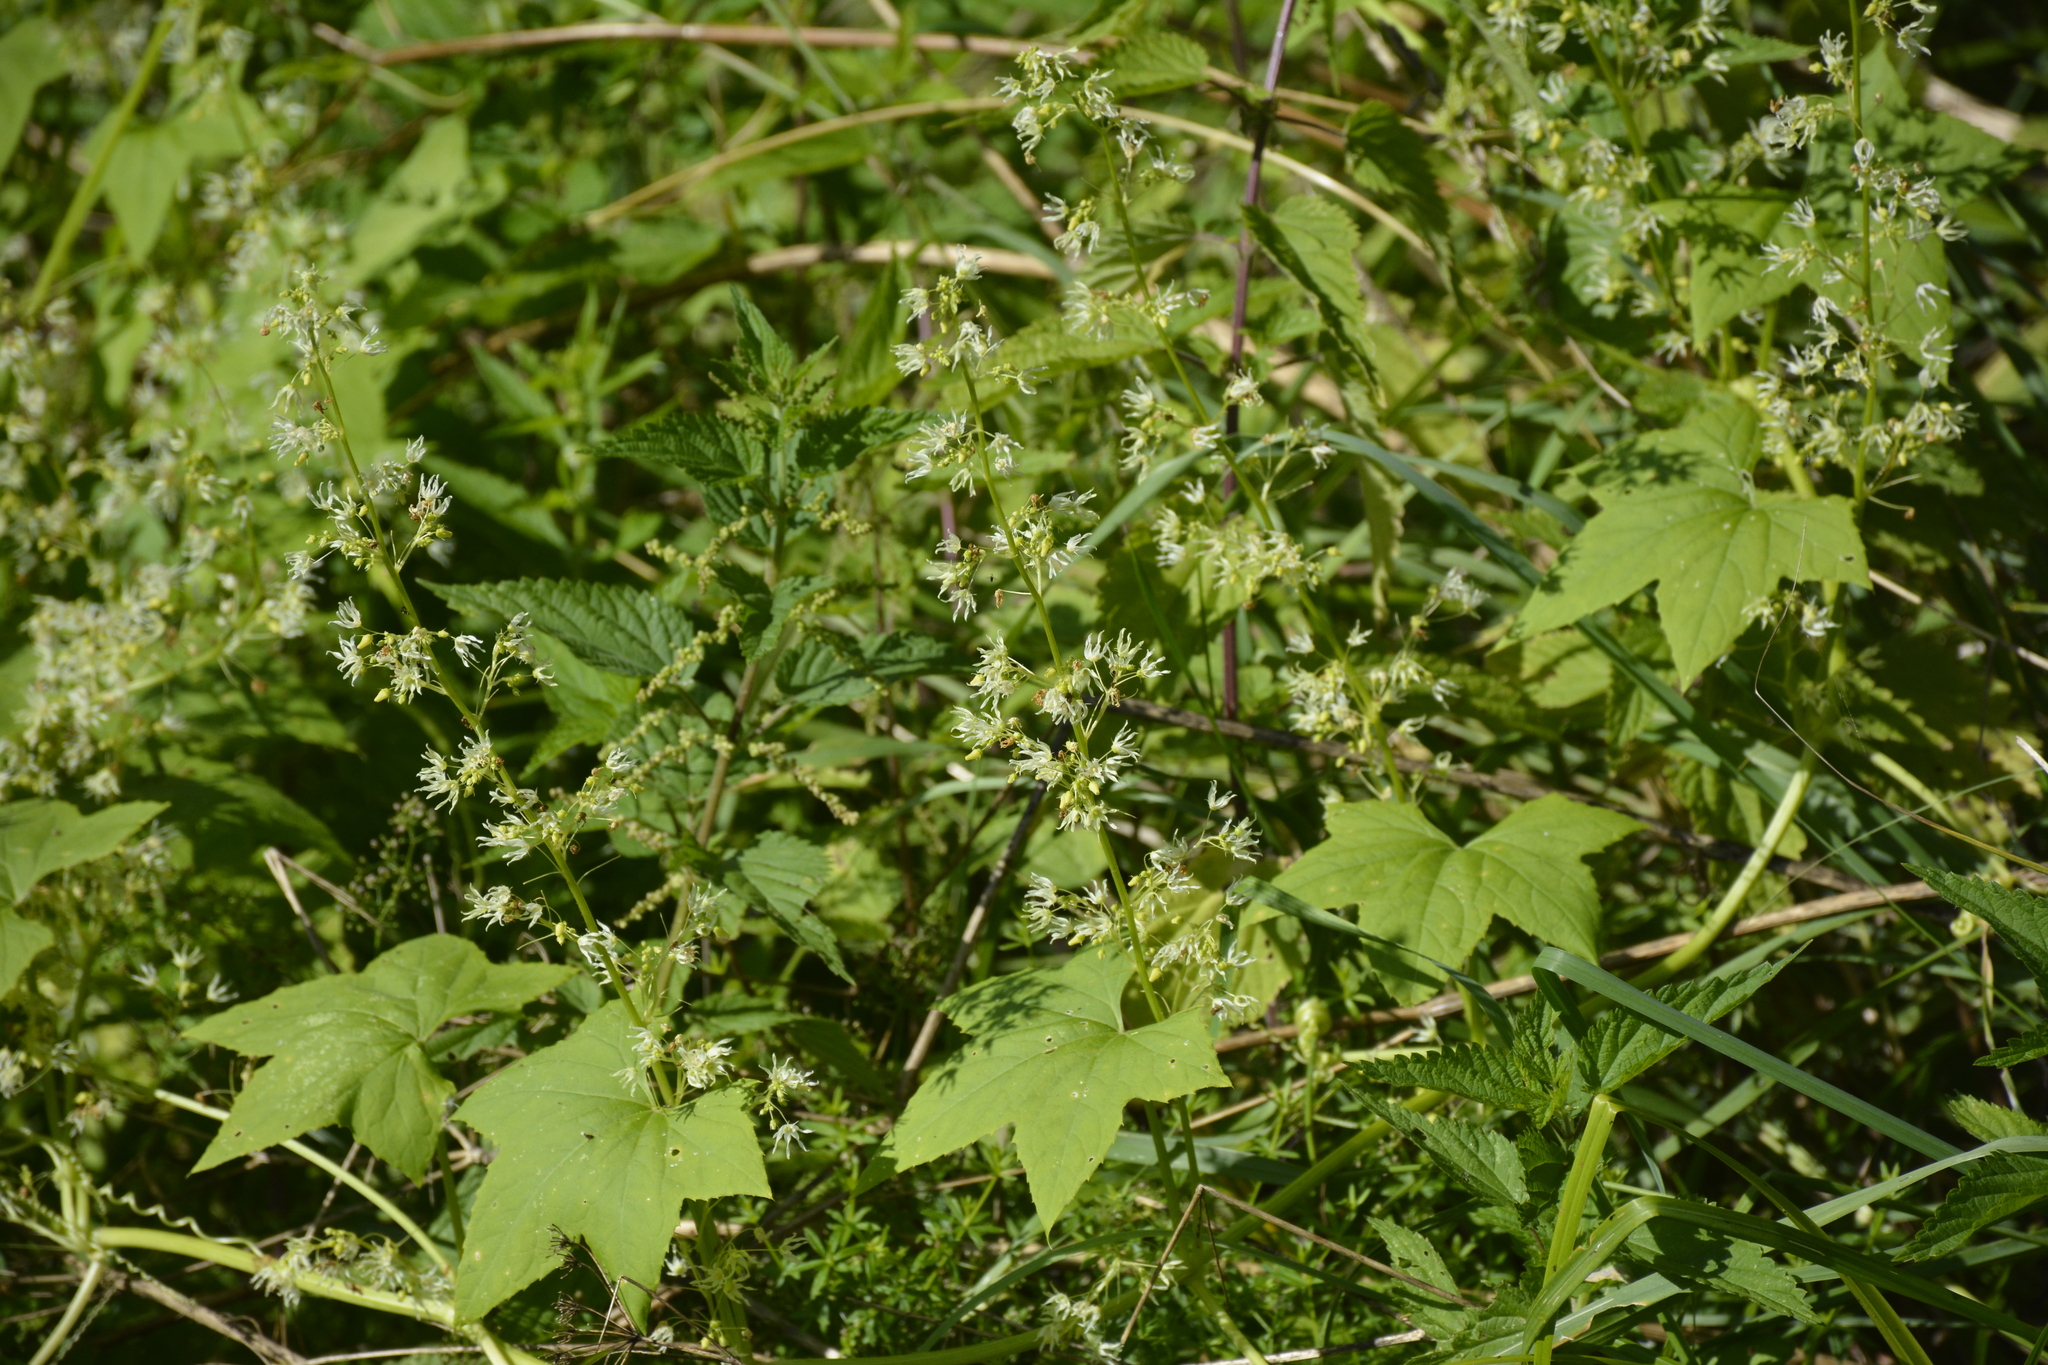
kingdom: Plantae
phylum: Tracheophyta
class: Magnoliopsida
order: Cucurbitales
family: Cucurbitaceae
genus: Echinocystis
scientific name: Echinocystis lobata
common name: Wild cucumber
